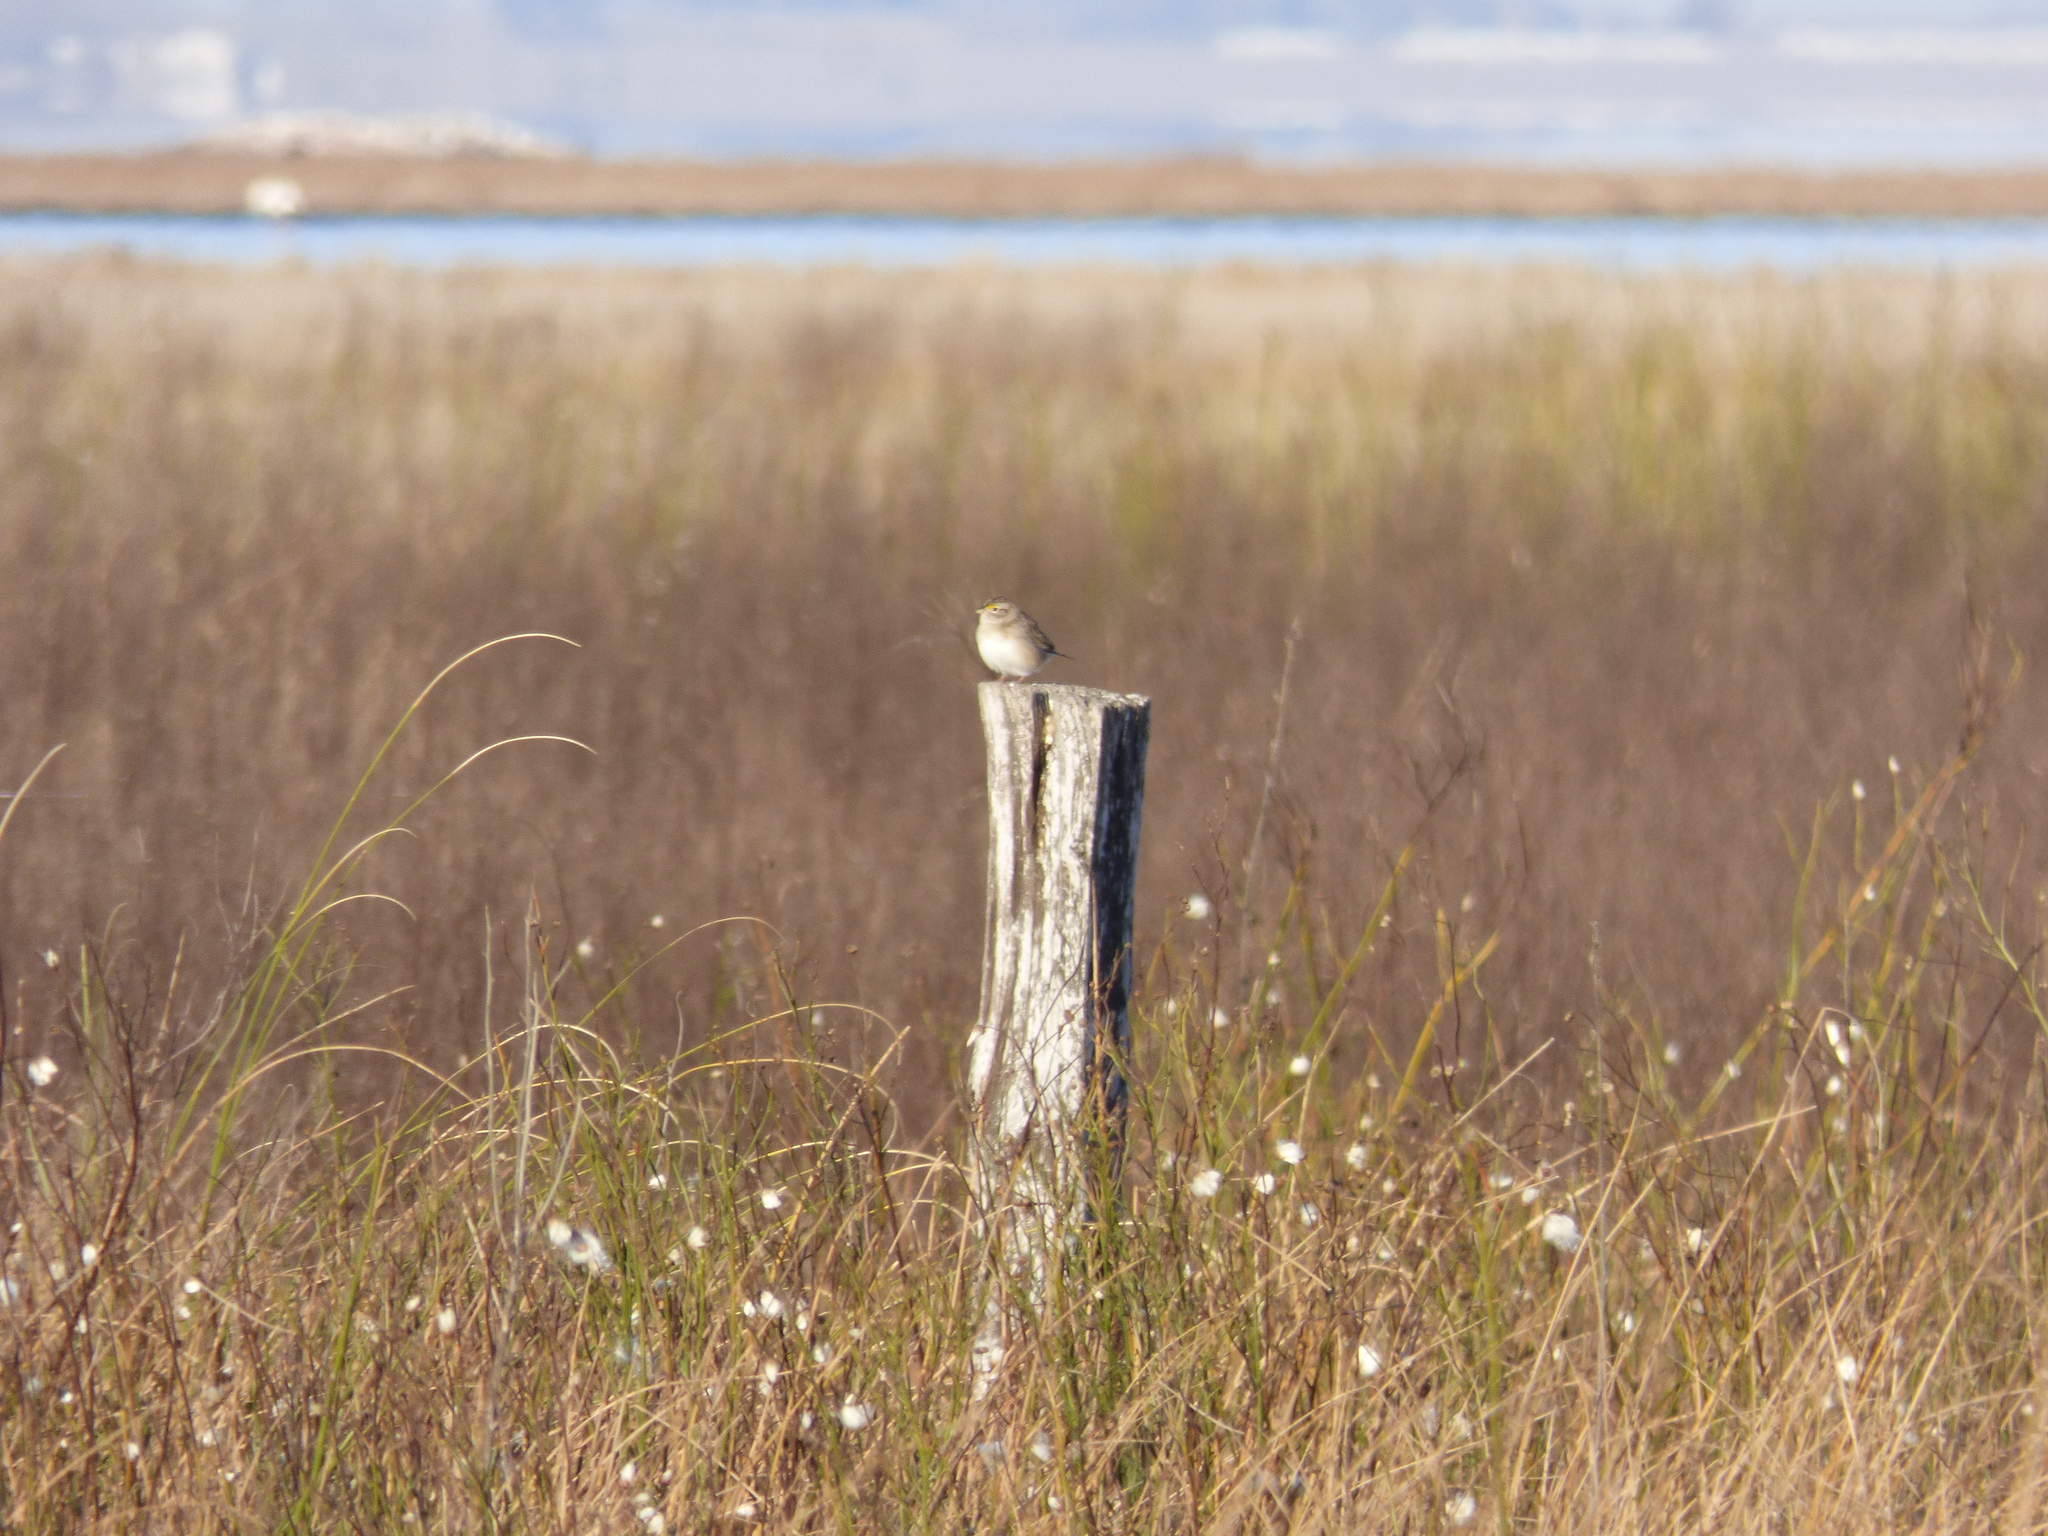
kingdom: Animalia
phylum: Chordata
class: Aves
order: Passeriformes
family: Passerellidae
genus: Ammodramus
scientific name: Ammodramus humeralis
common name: Grassland sparrow
